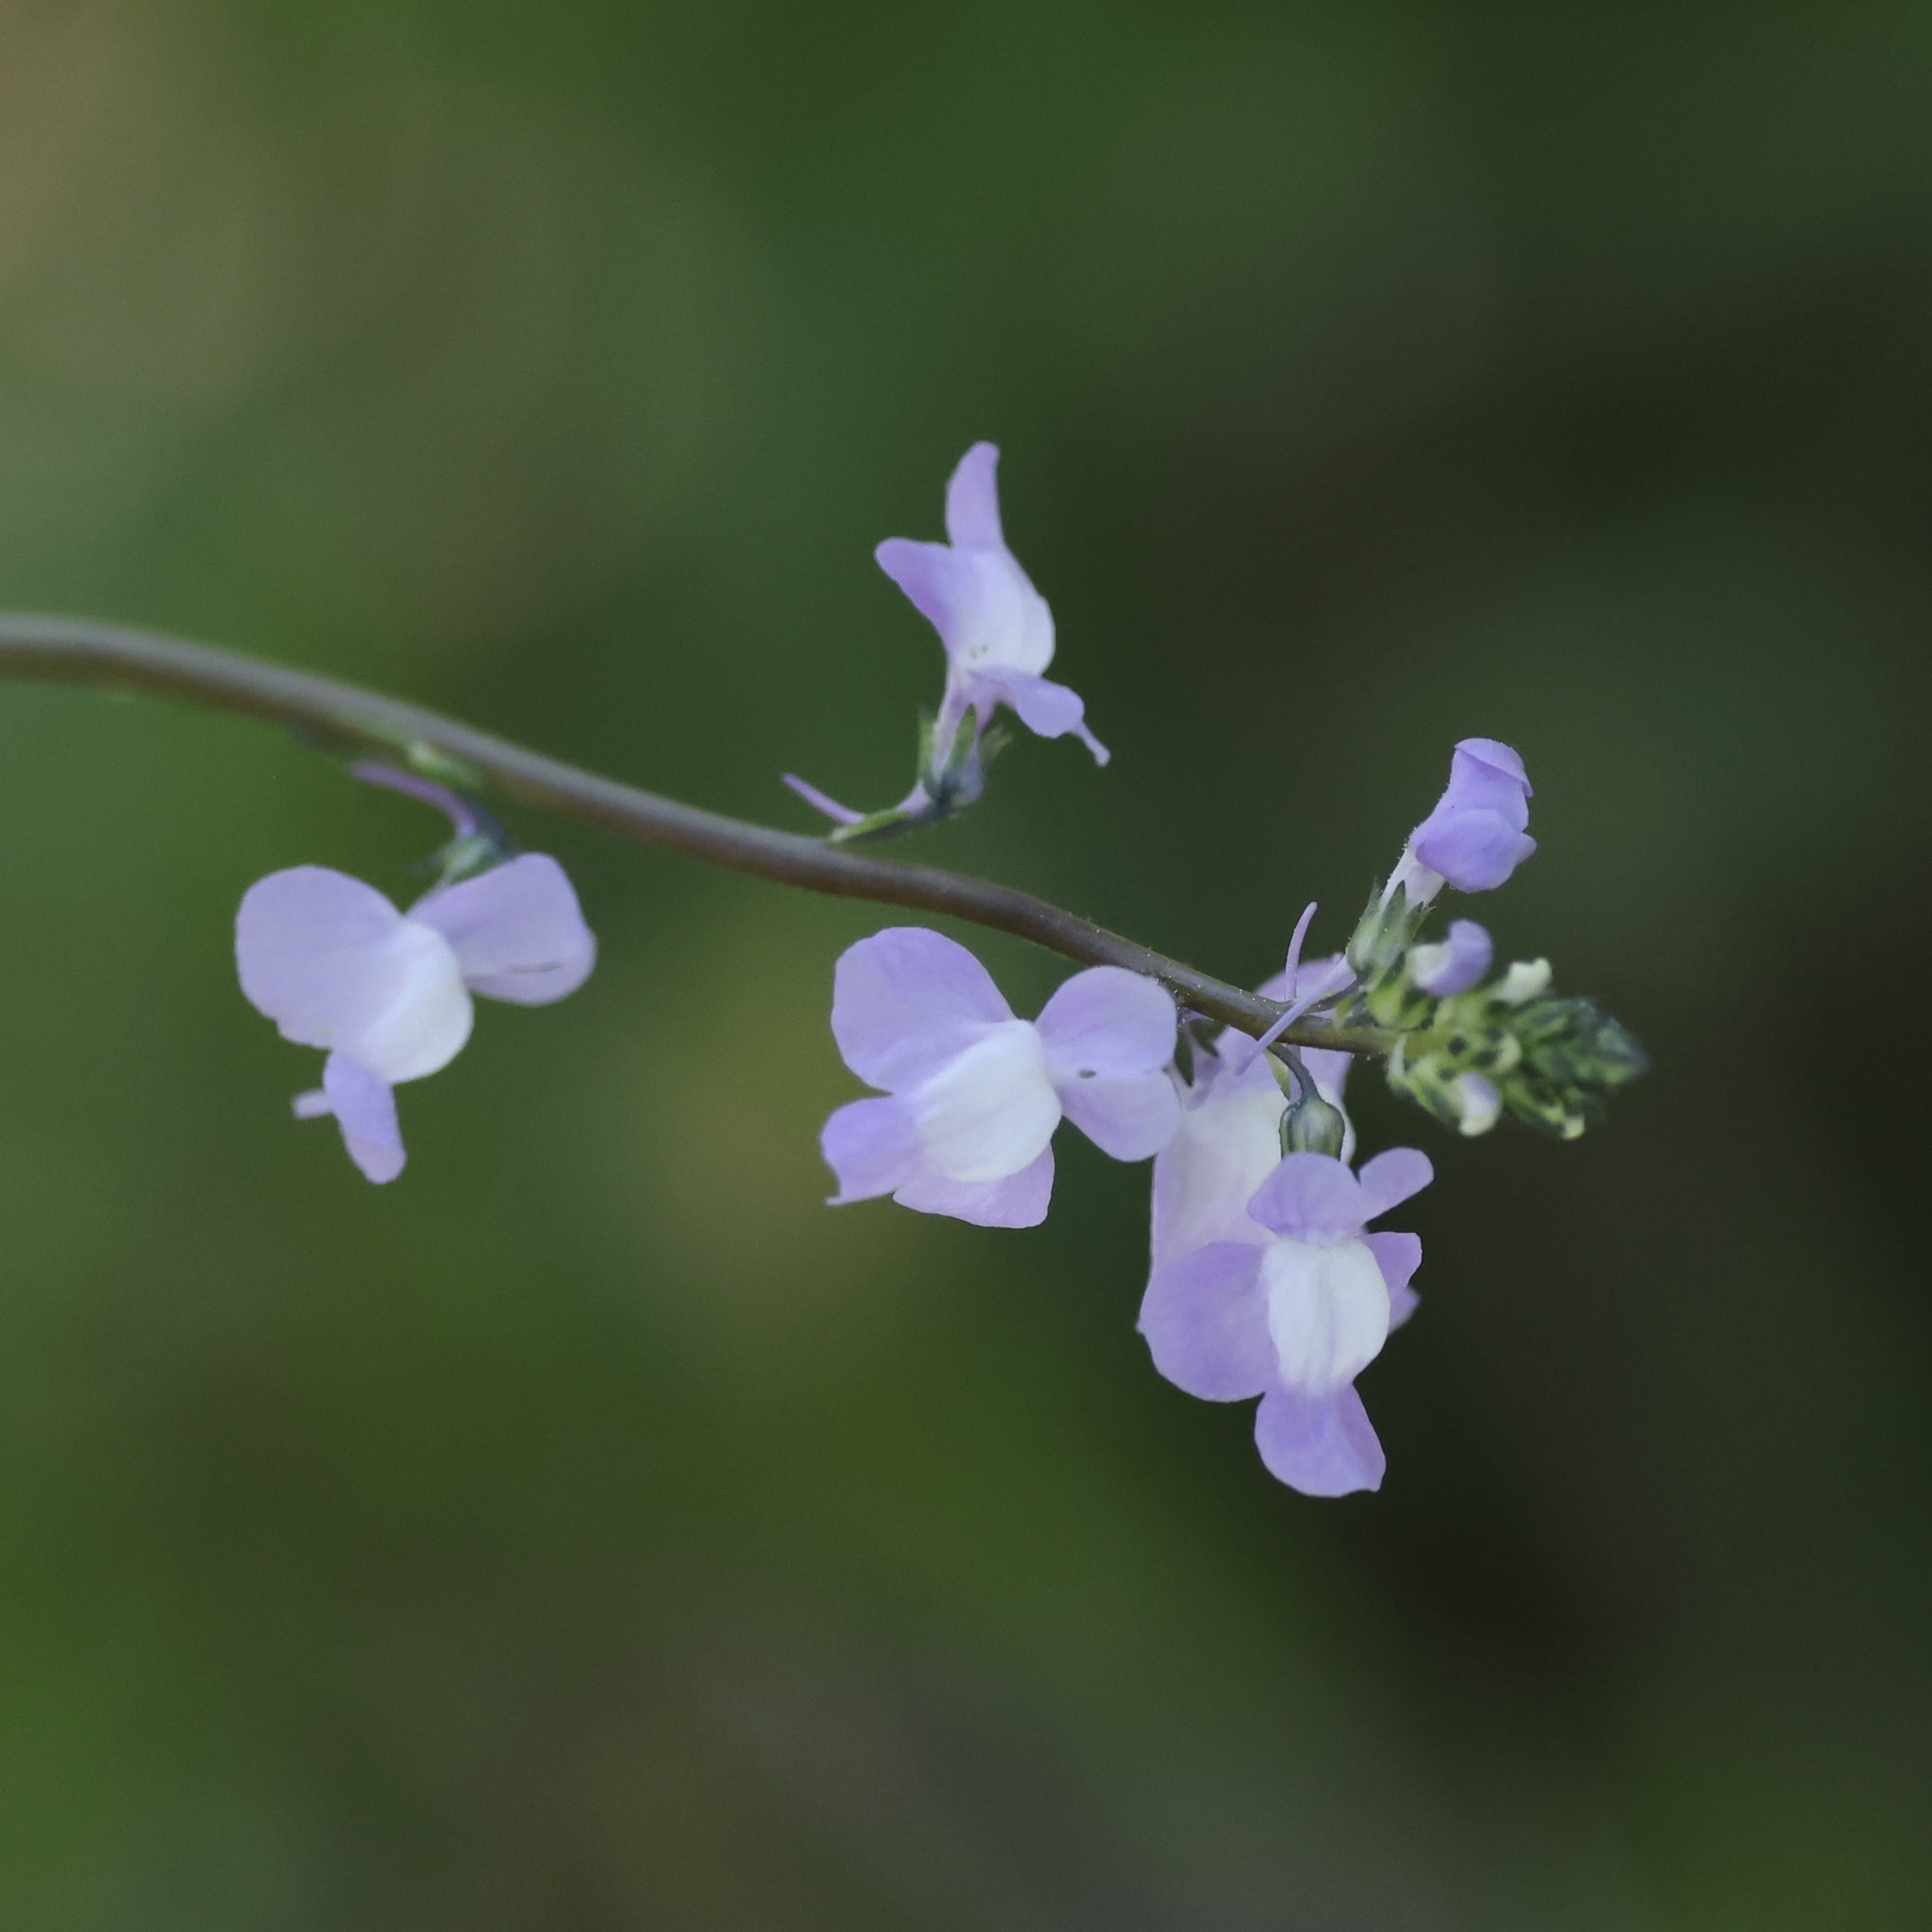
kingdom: Plantae
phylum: Tracheophyta
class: Magnoliopsida
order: Lamiales
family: Plantaginaceae
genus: Nuttallanthus
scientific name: Nuttallanthus canadensis
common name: Blue toadflax
